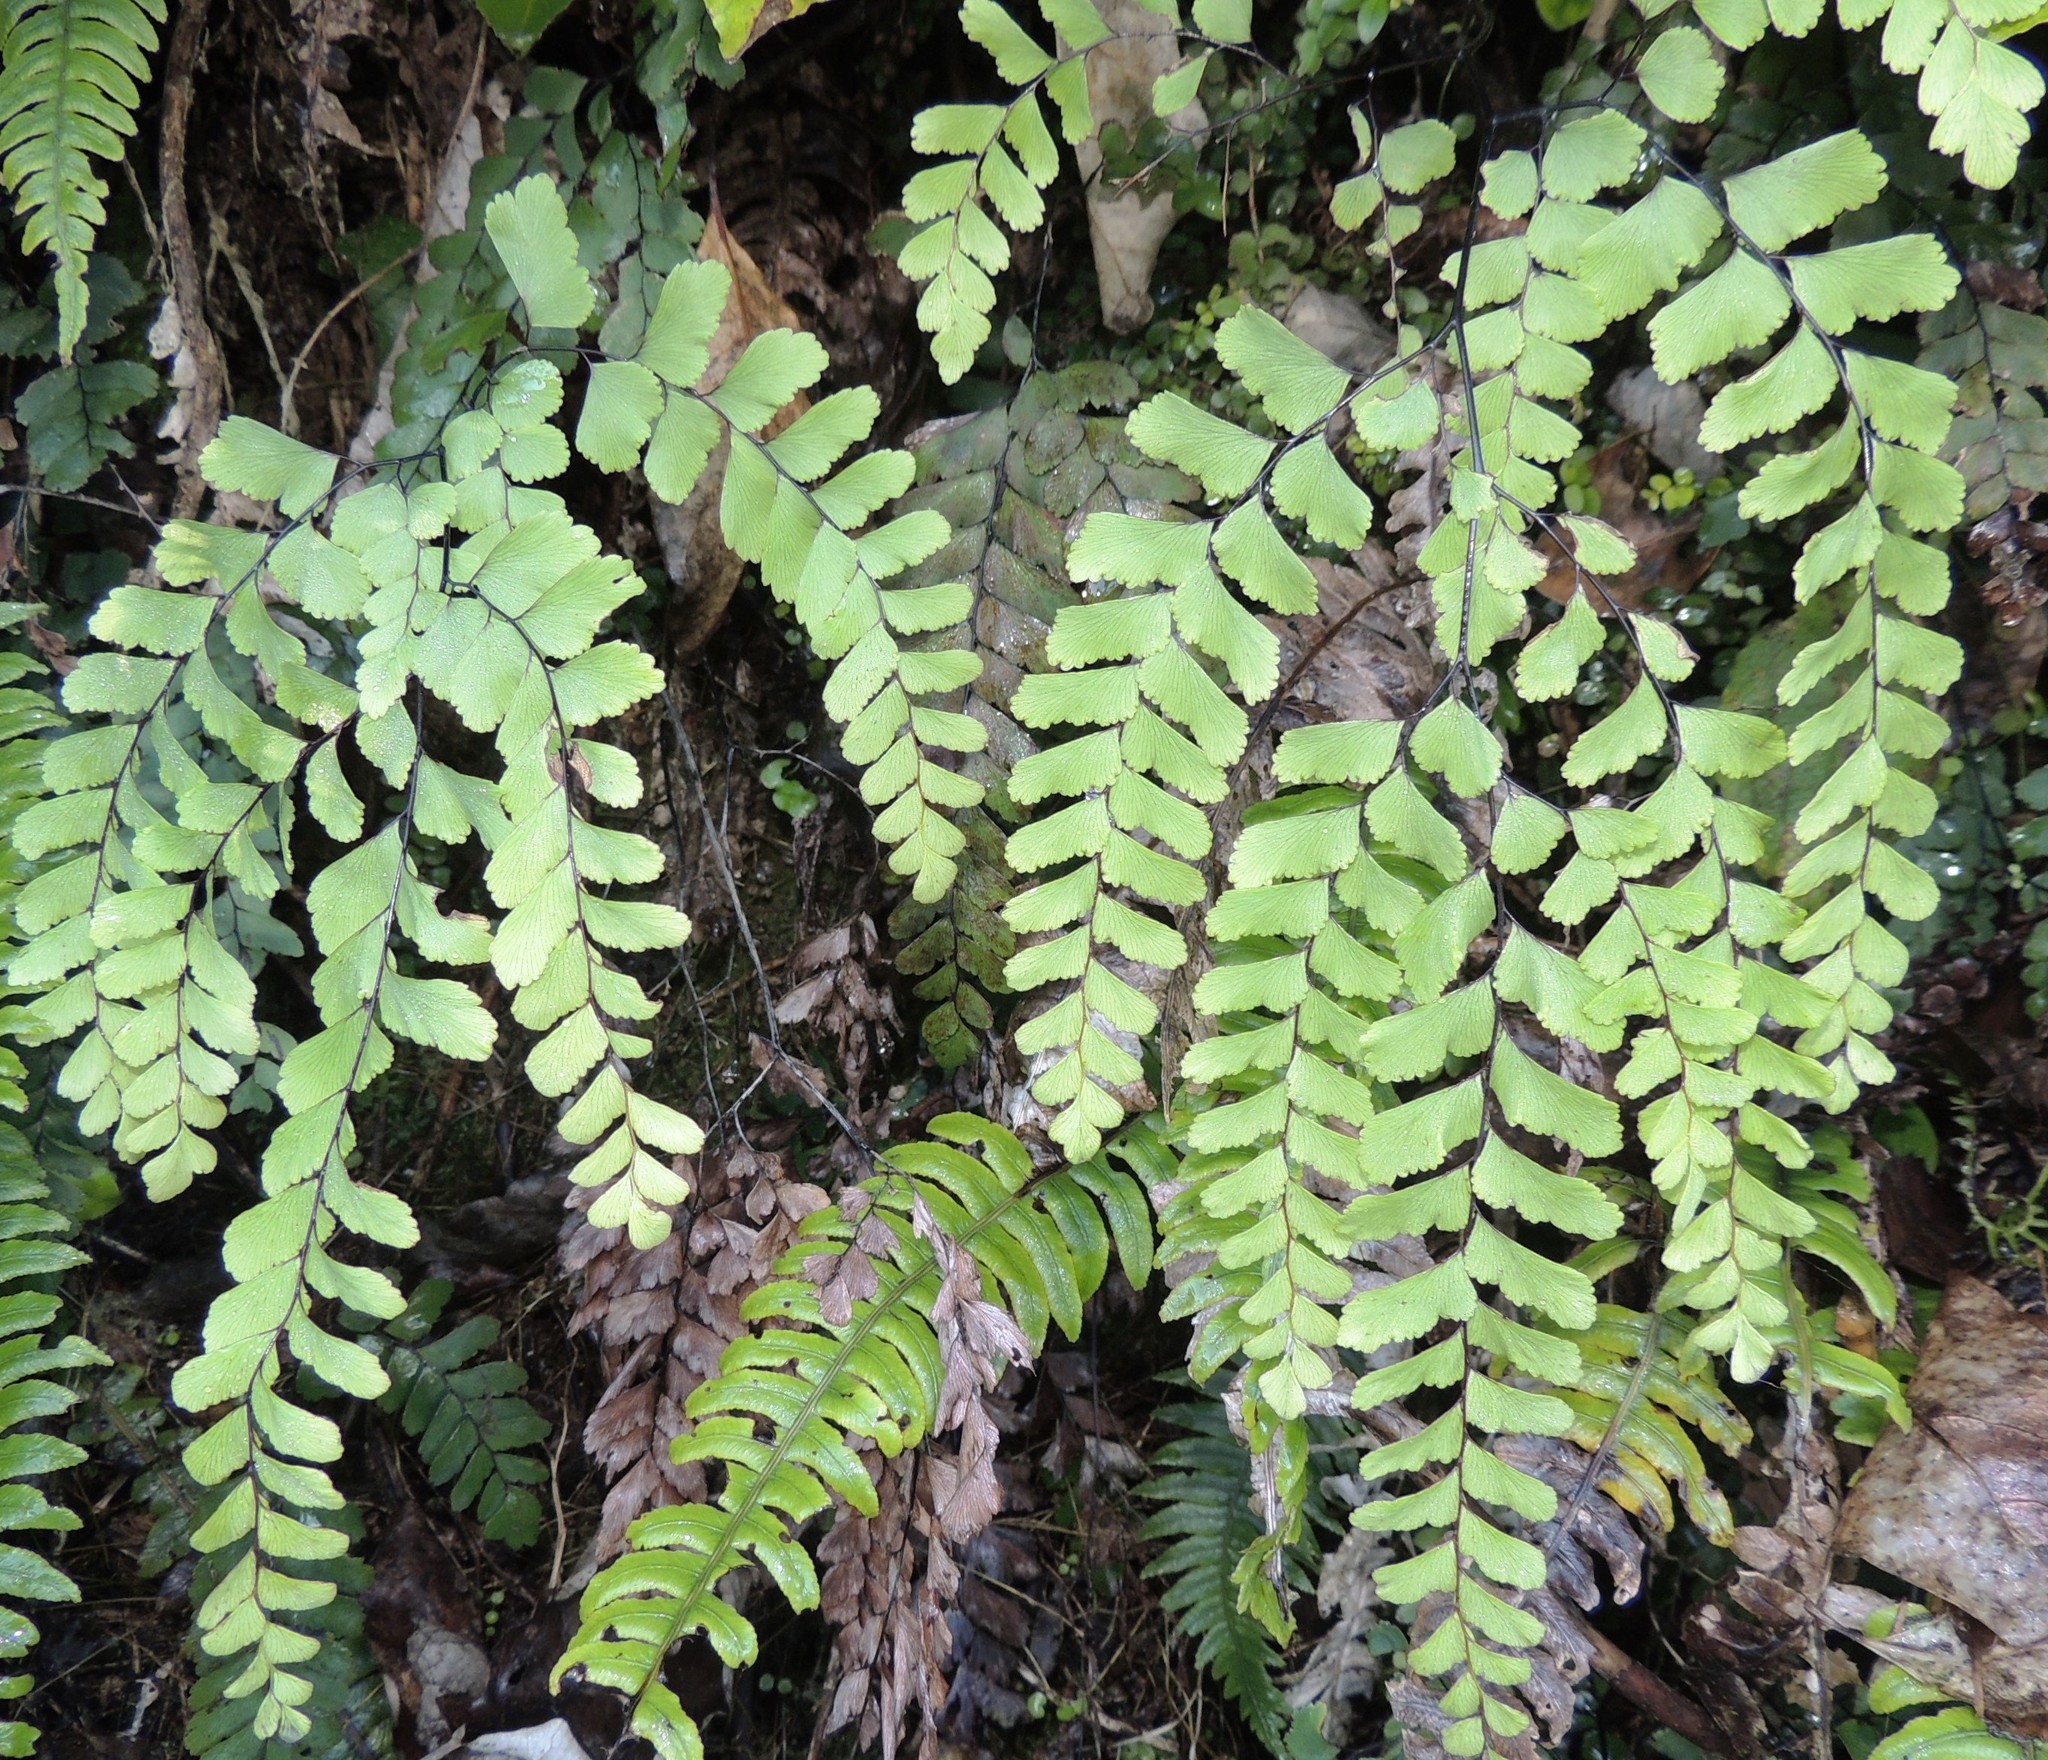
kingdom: Plantae
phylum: Tracheophyta
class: Polypodiopsida
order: Polypodiales
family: Pteridaceae
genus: Adiantum
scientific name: Adiantum cunninghamii
